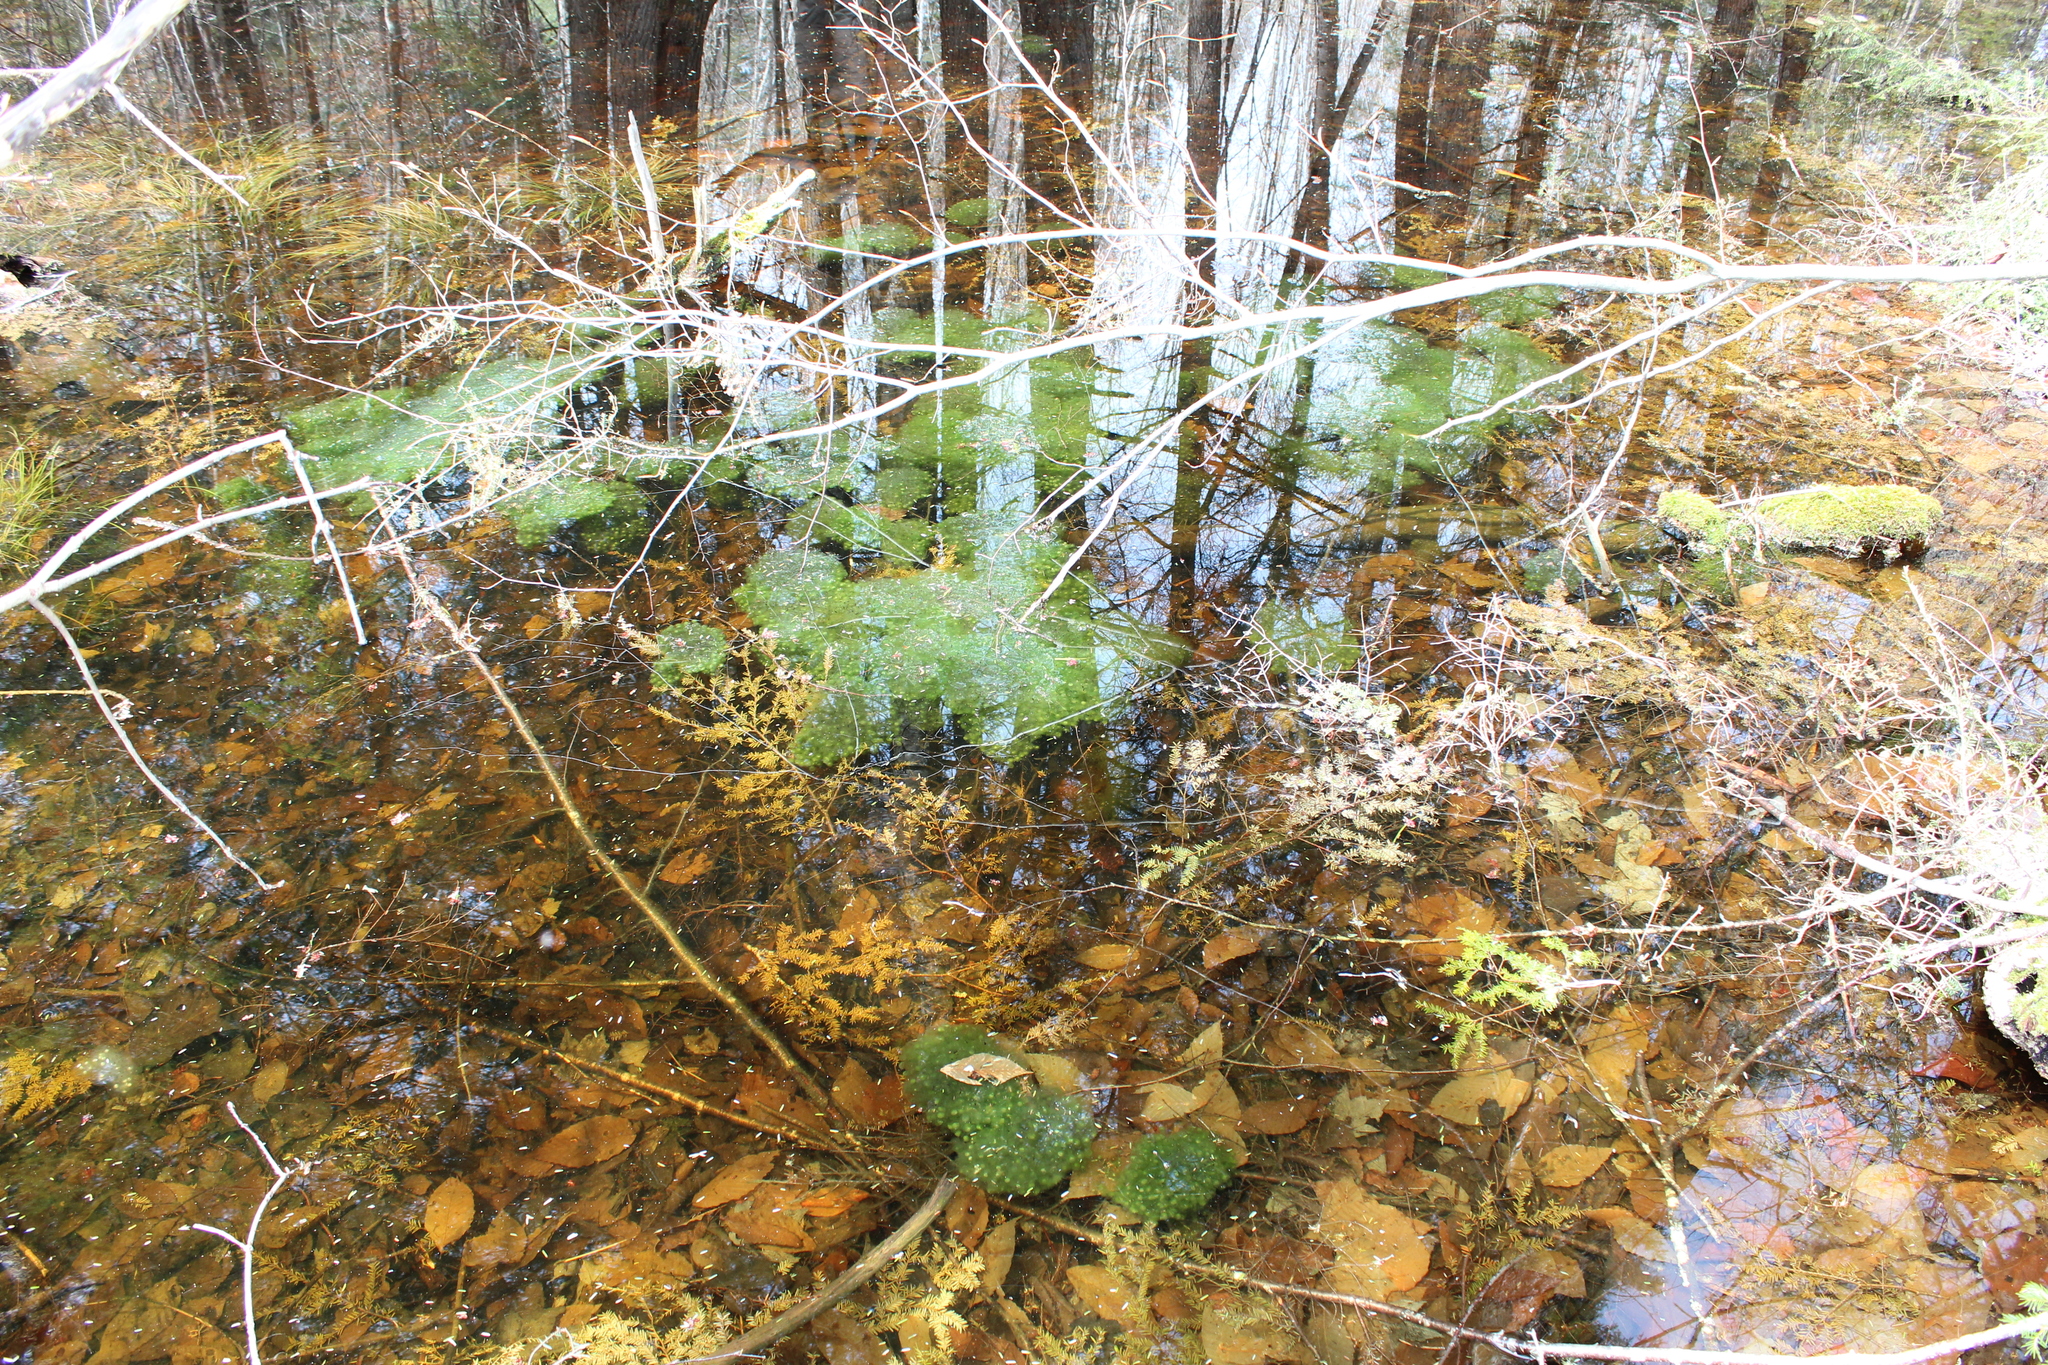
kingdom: Animalia
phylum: Chordata
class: Amphibia
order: Anura
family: Ranidae
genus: Lithobates
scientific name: Lithobates sylvaticus
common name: Wood frog
